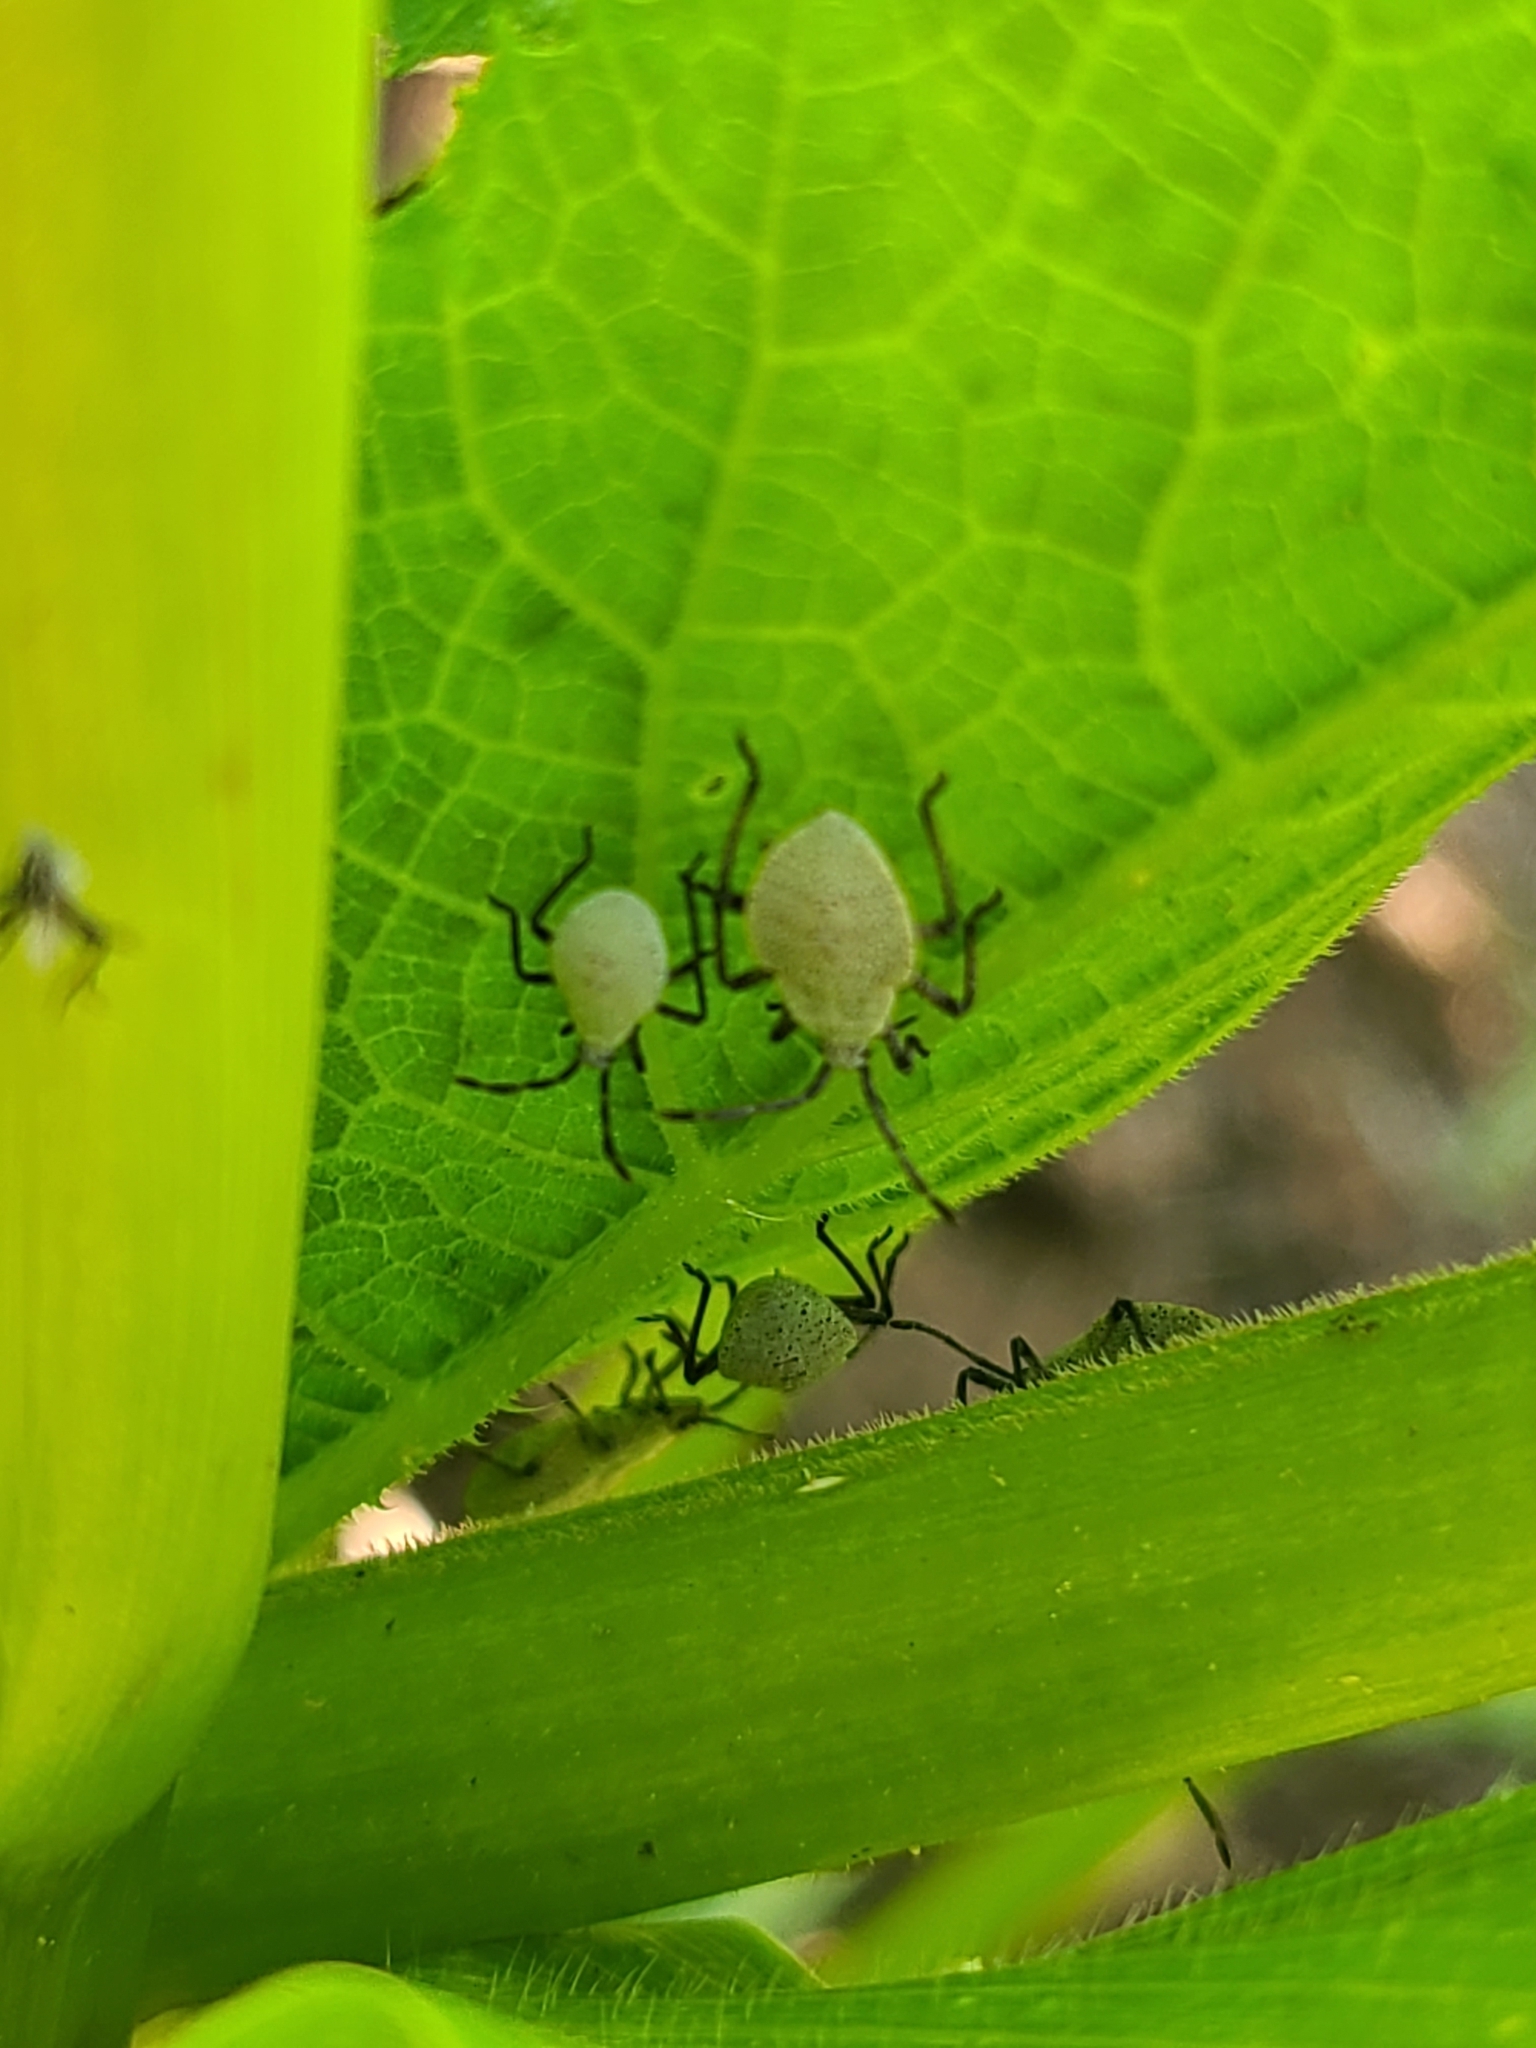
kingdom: Animalia
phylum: Arthropoda
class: Insecta
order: Hemiptera
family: Coreidae
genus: Anasa
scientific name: Anasa tristis
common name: Squash bug
